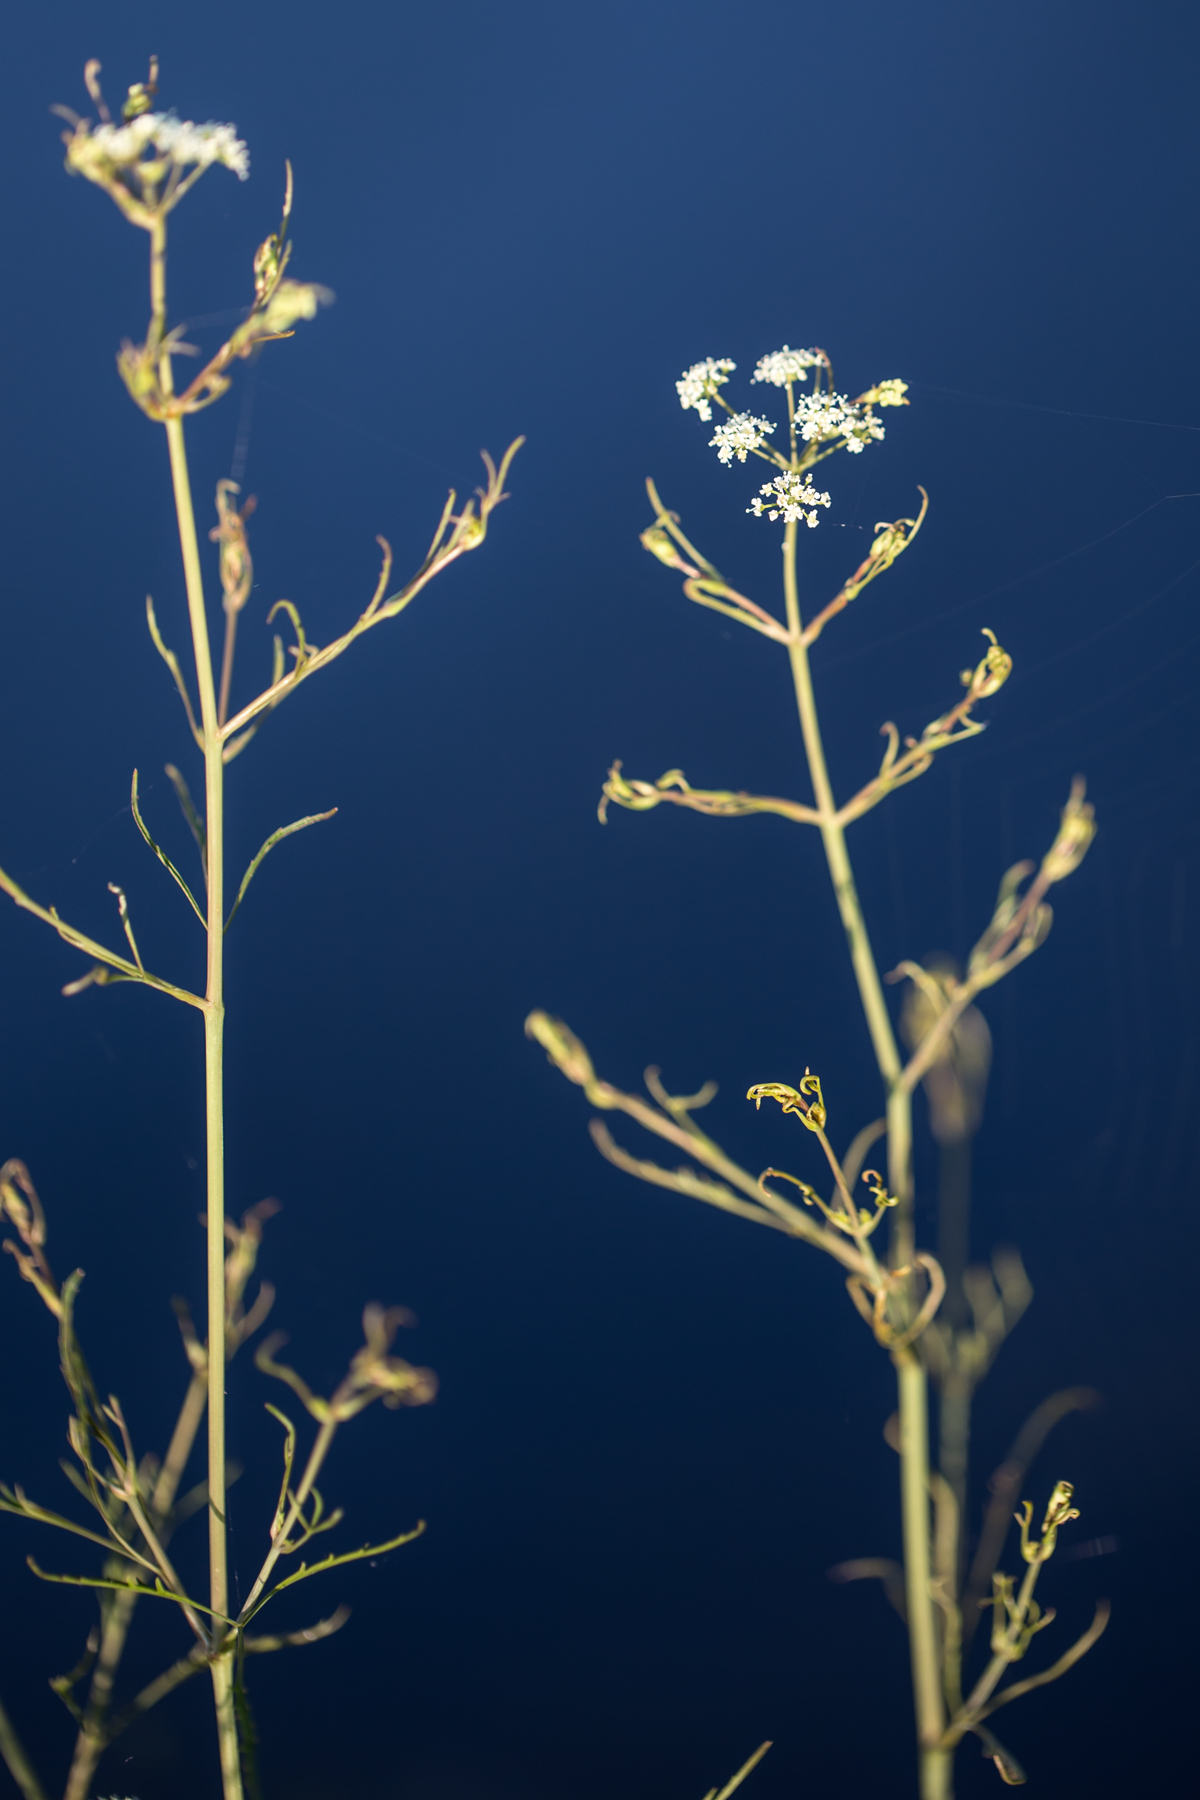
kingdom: Plantae
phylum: Tracheophyta
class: Magnoliopsida
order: Apiales
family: Apiaceae
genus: Cicuta
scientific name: Cicuta bulbifera
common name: Bulb-bearing water-hemlock
